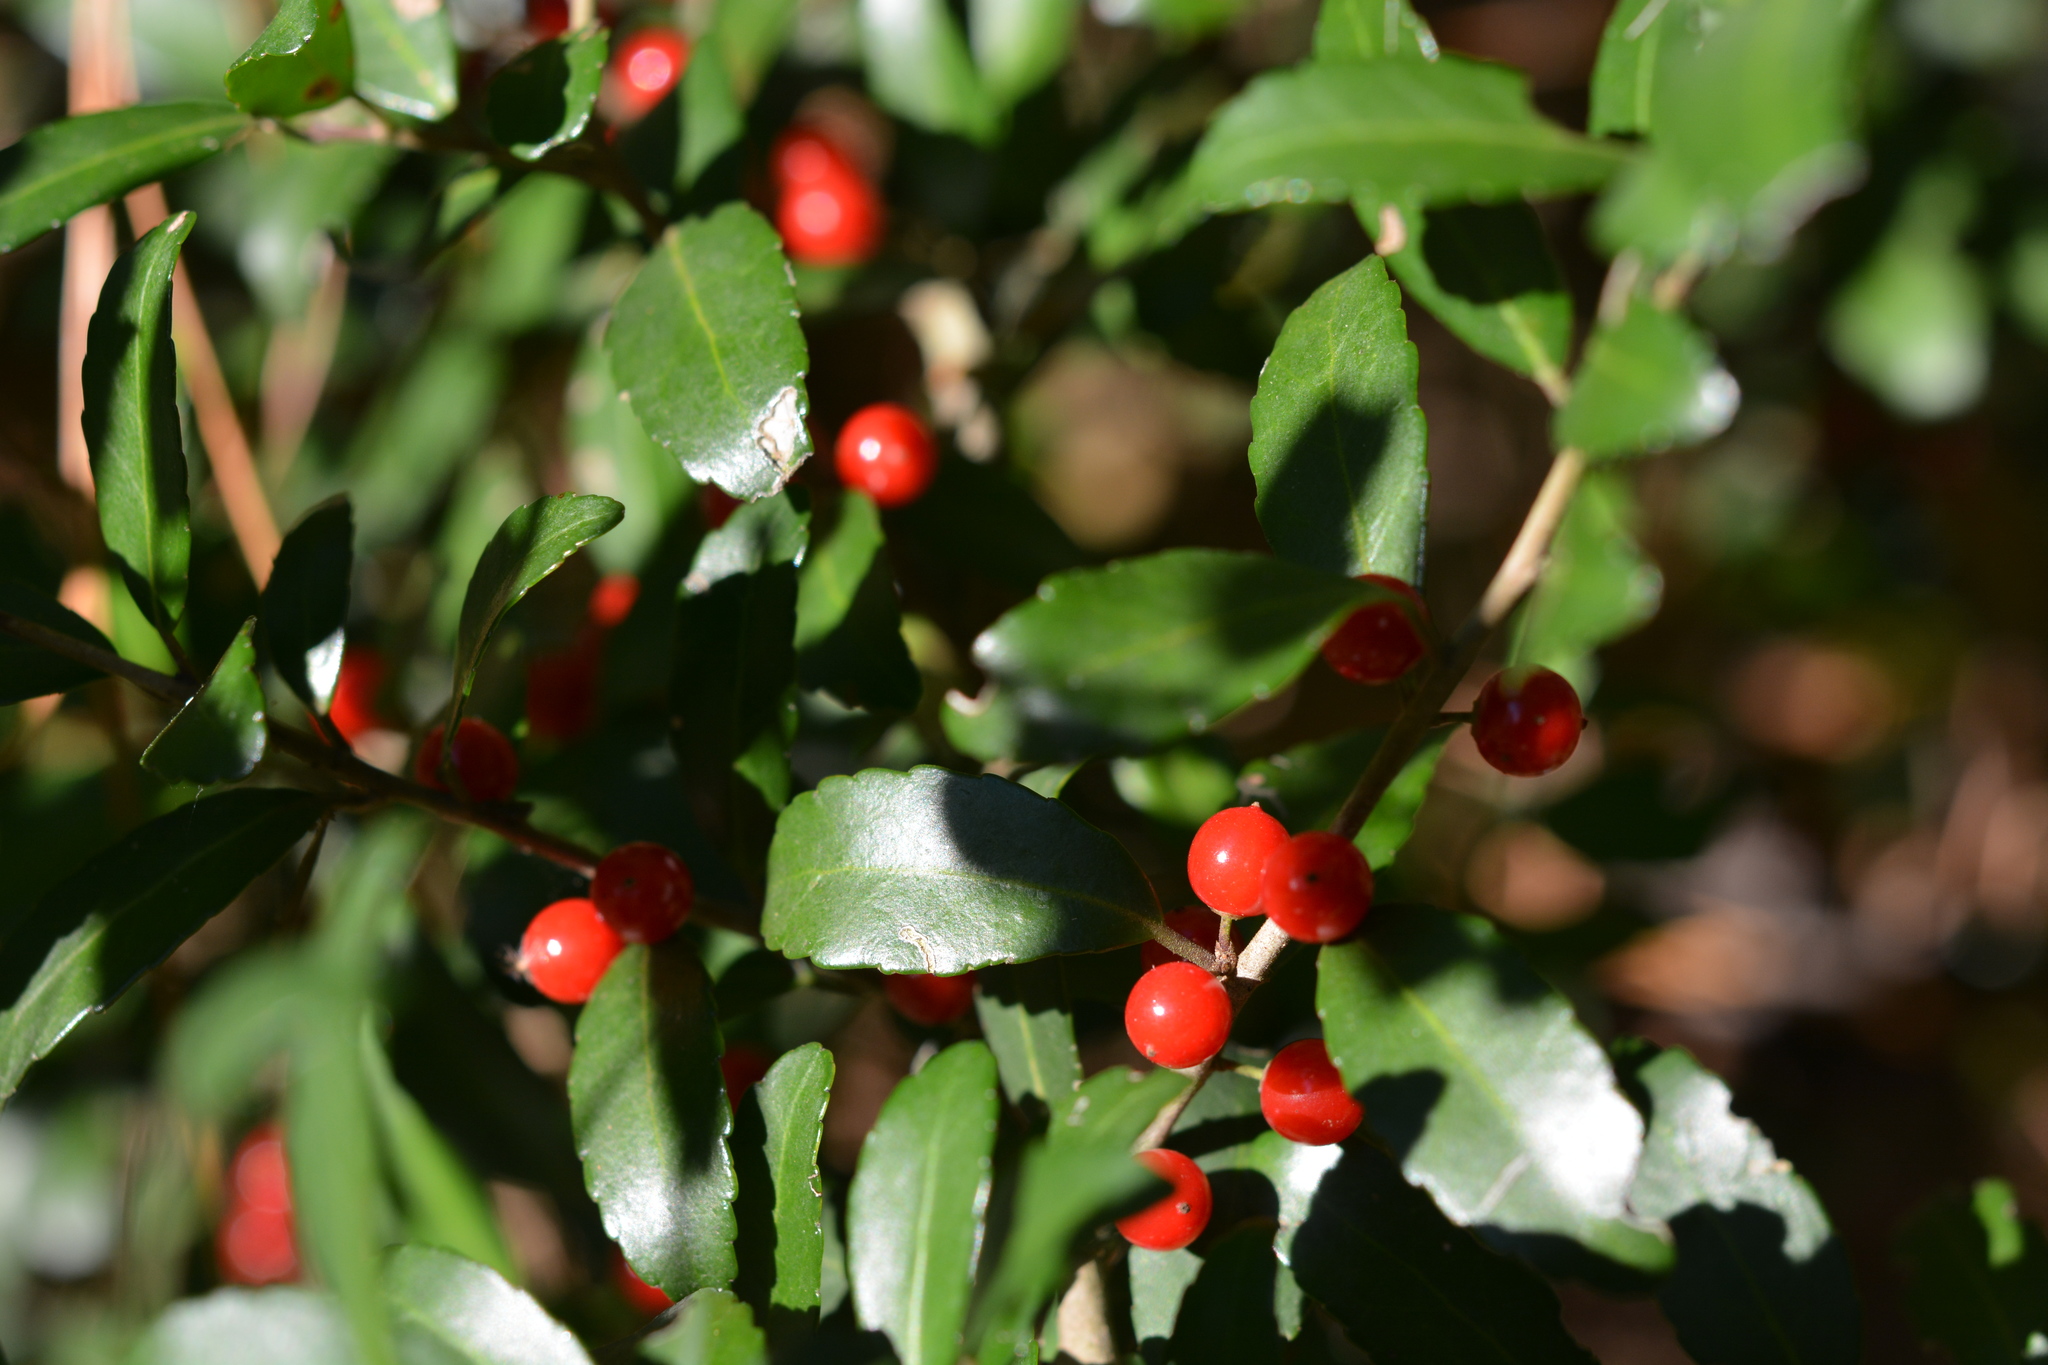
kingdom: Plantae
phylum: Tracheophyta
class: Magnoliopsida
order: Aquifoliales
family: Aquifoliaceae
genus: Ilex
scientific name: Ilex vomitoria
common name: Yaupon holly
